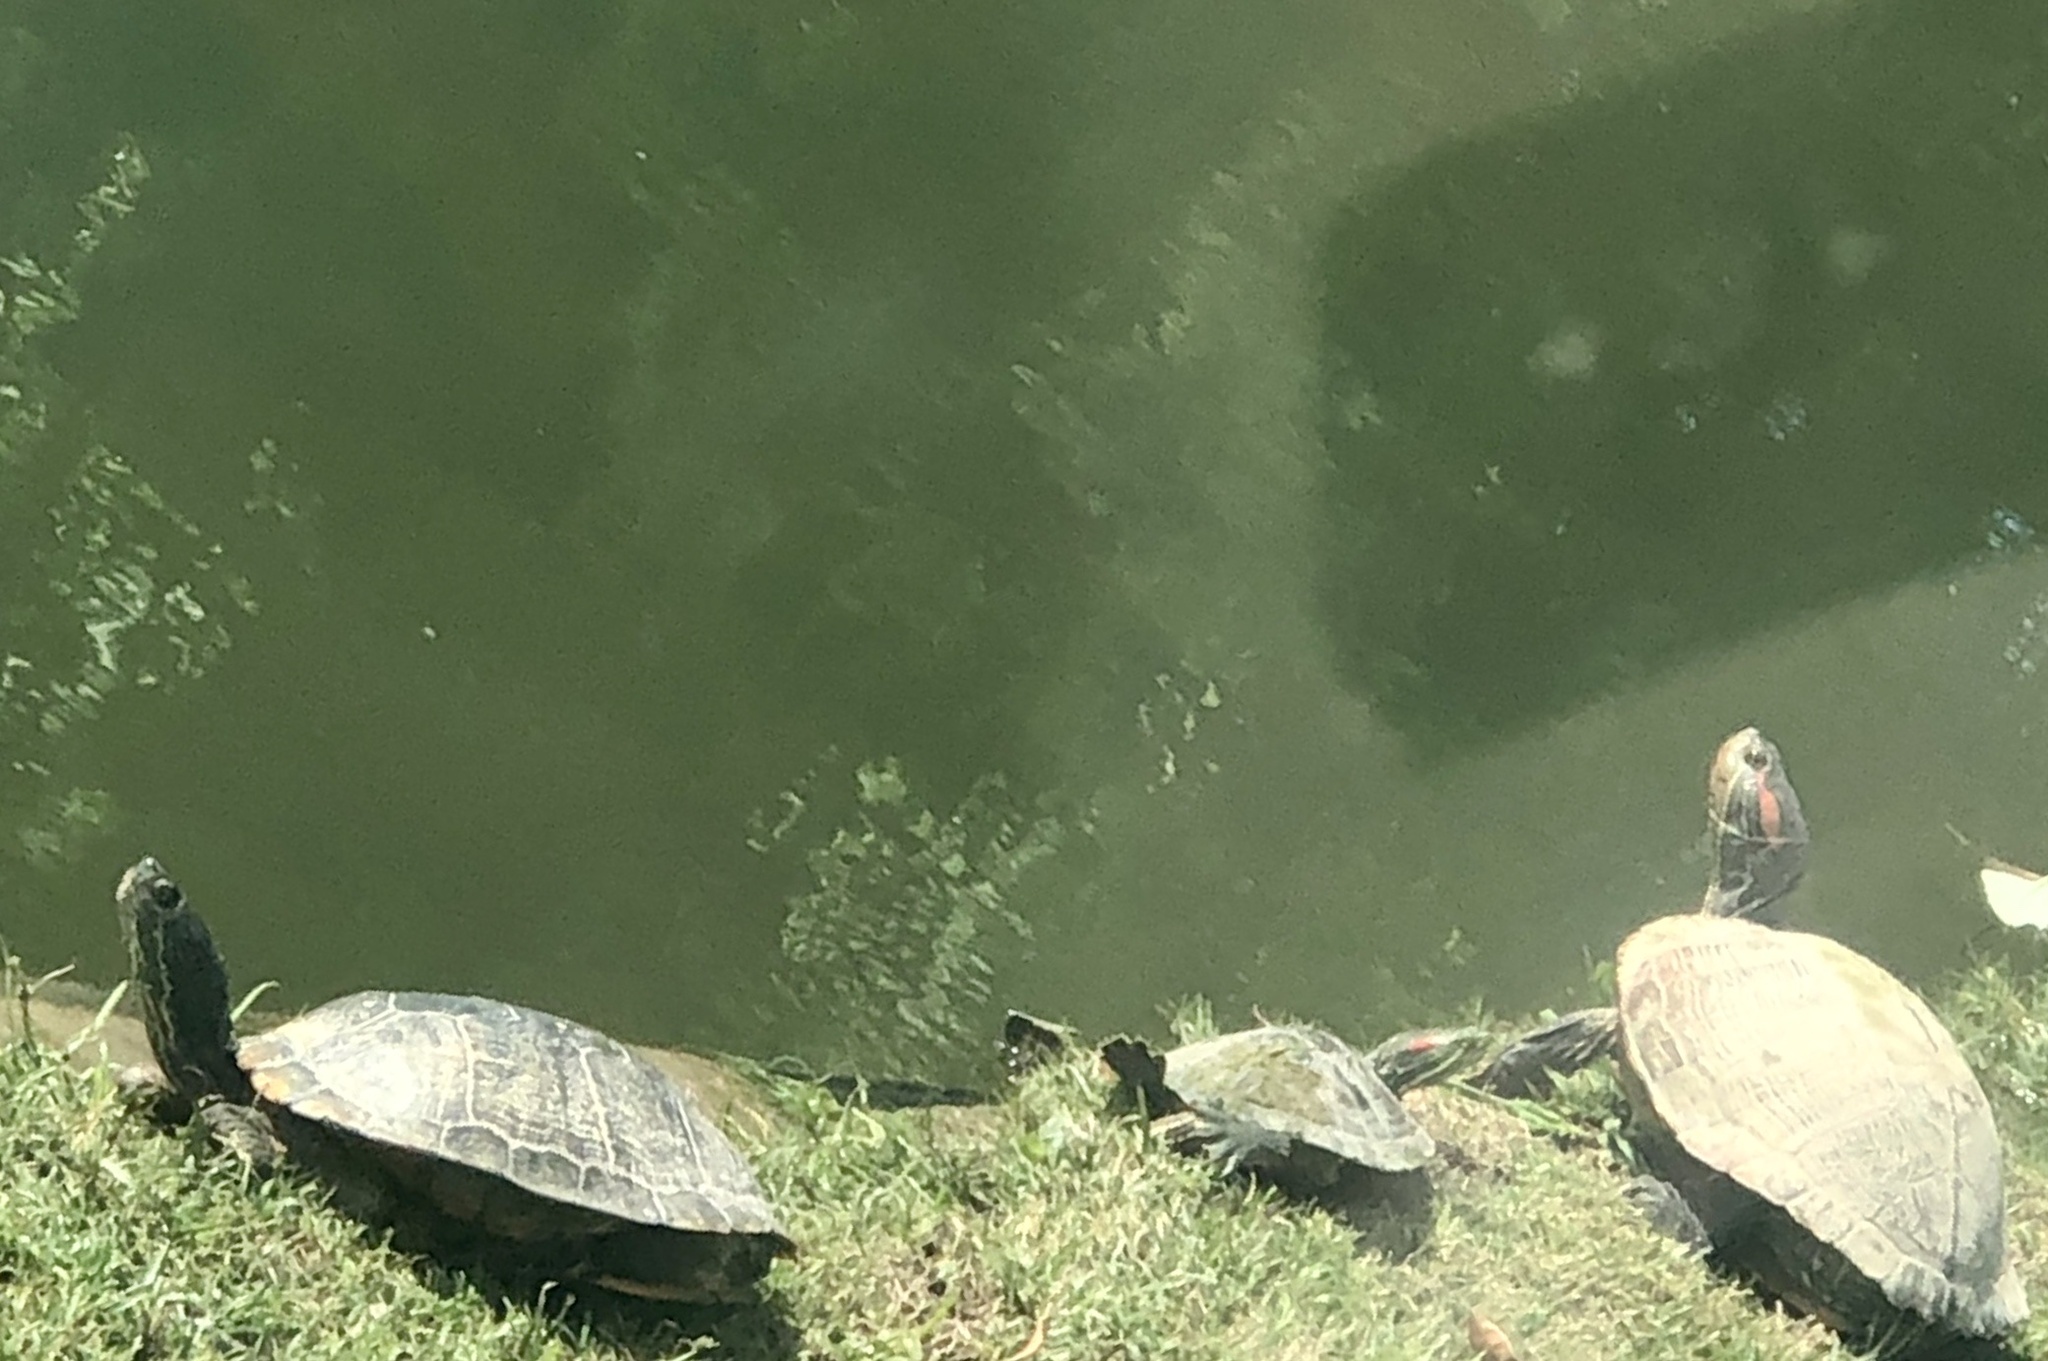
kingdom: Animalia
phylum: Chordata
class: Testudines
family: Emydidae
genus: Trachemys
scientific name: Trachemys scripta
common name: Slider
